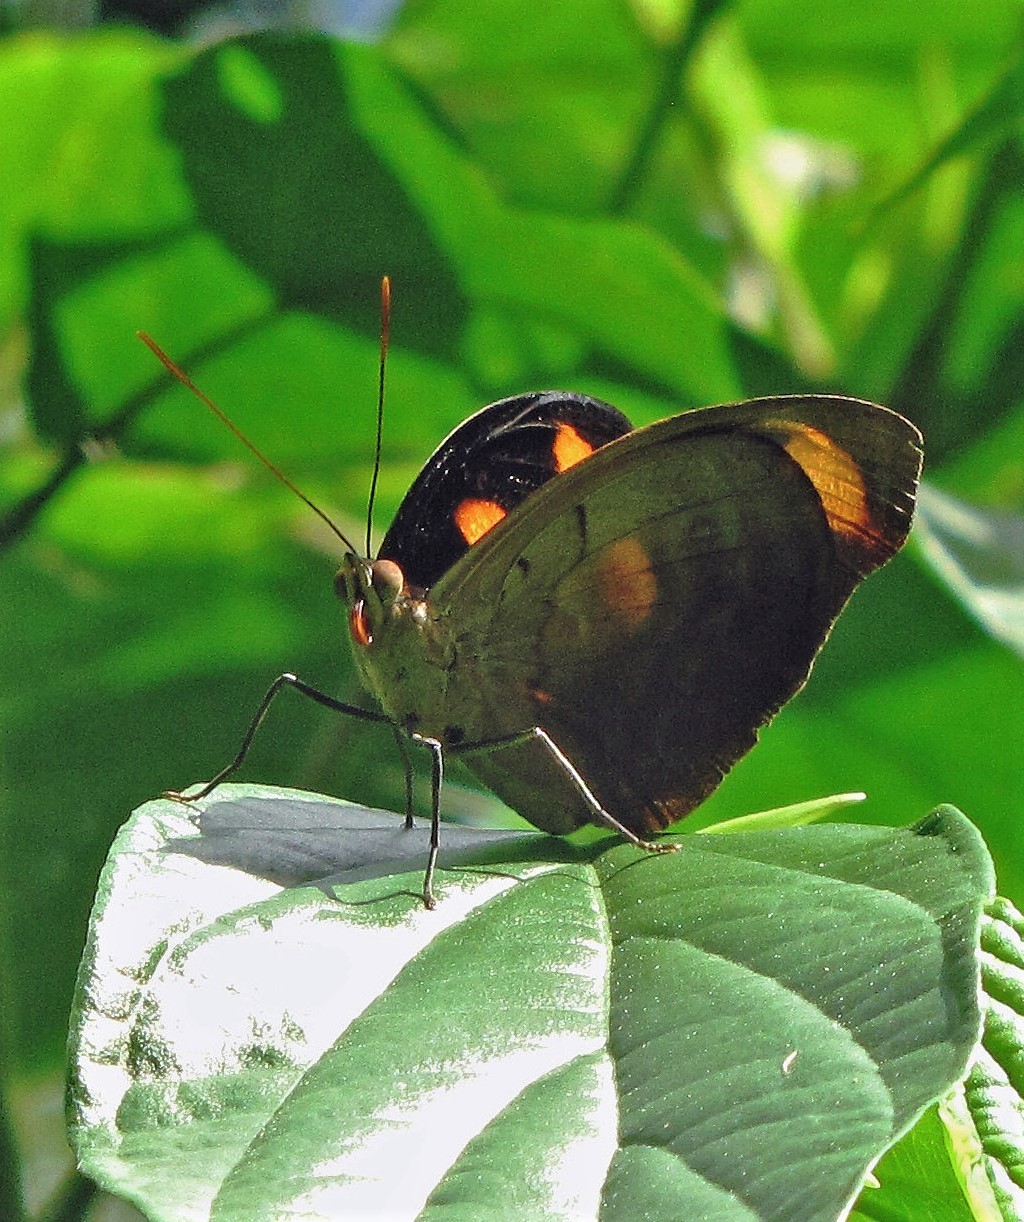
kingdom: Animalia
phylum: Arthropoda
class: Insecta
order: Lepidoptera
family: Nymphalidae
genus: Catonephele
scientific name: Catonephele numilia
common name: Blue-frosted banner
